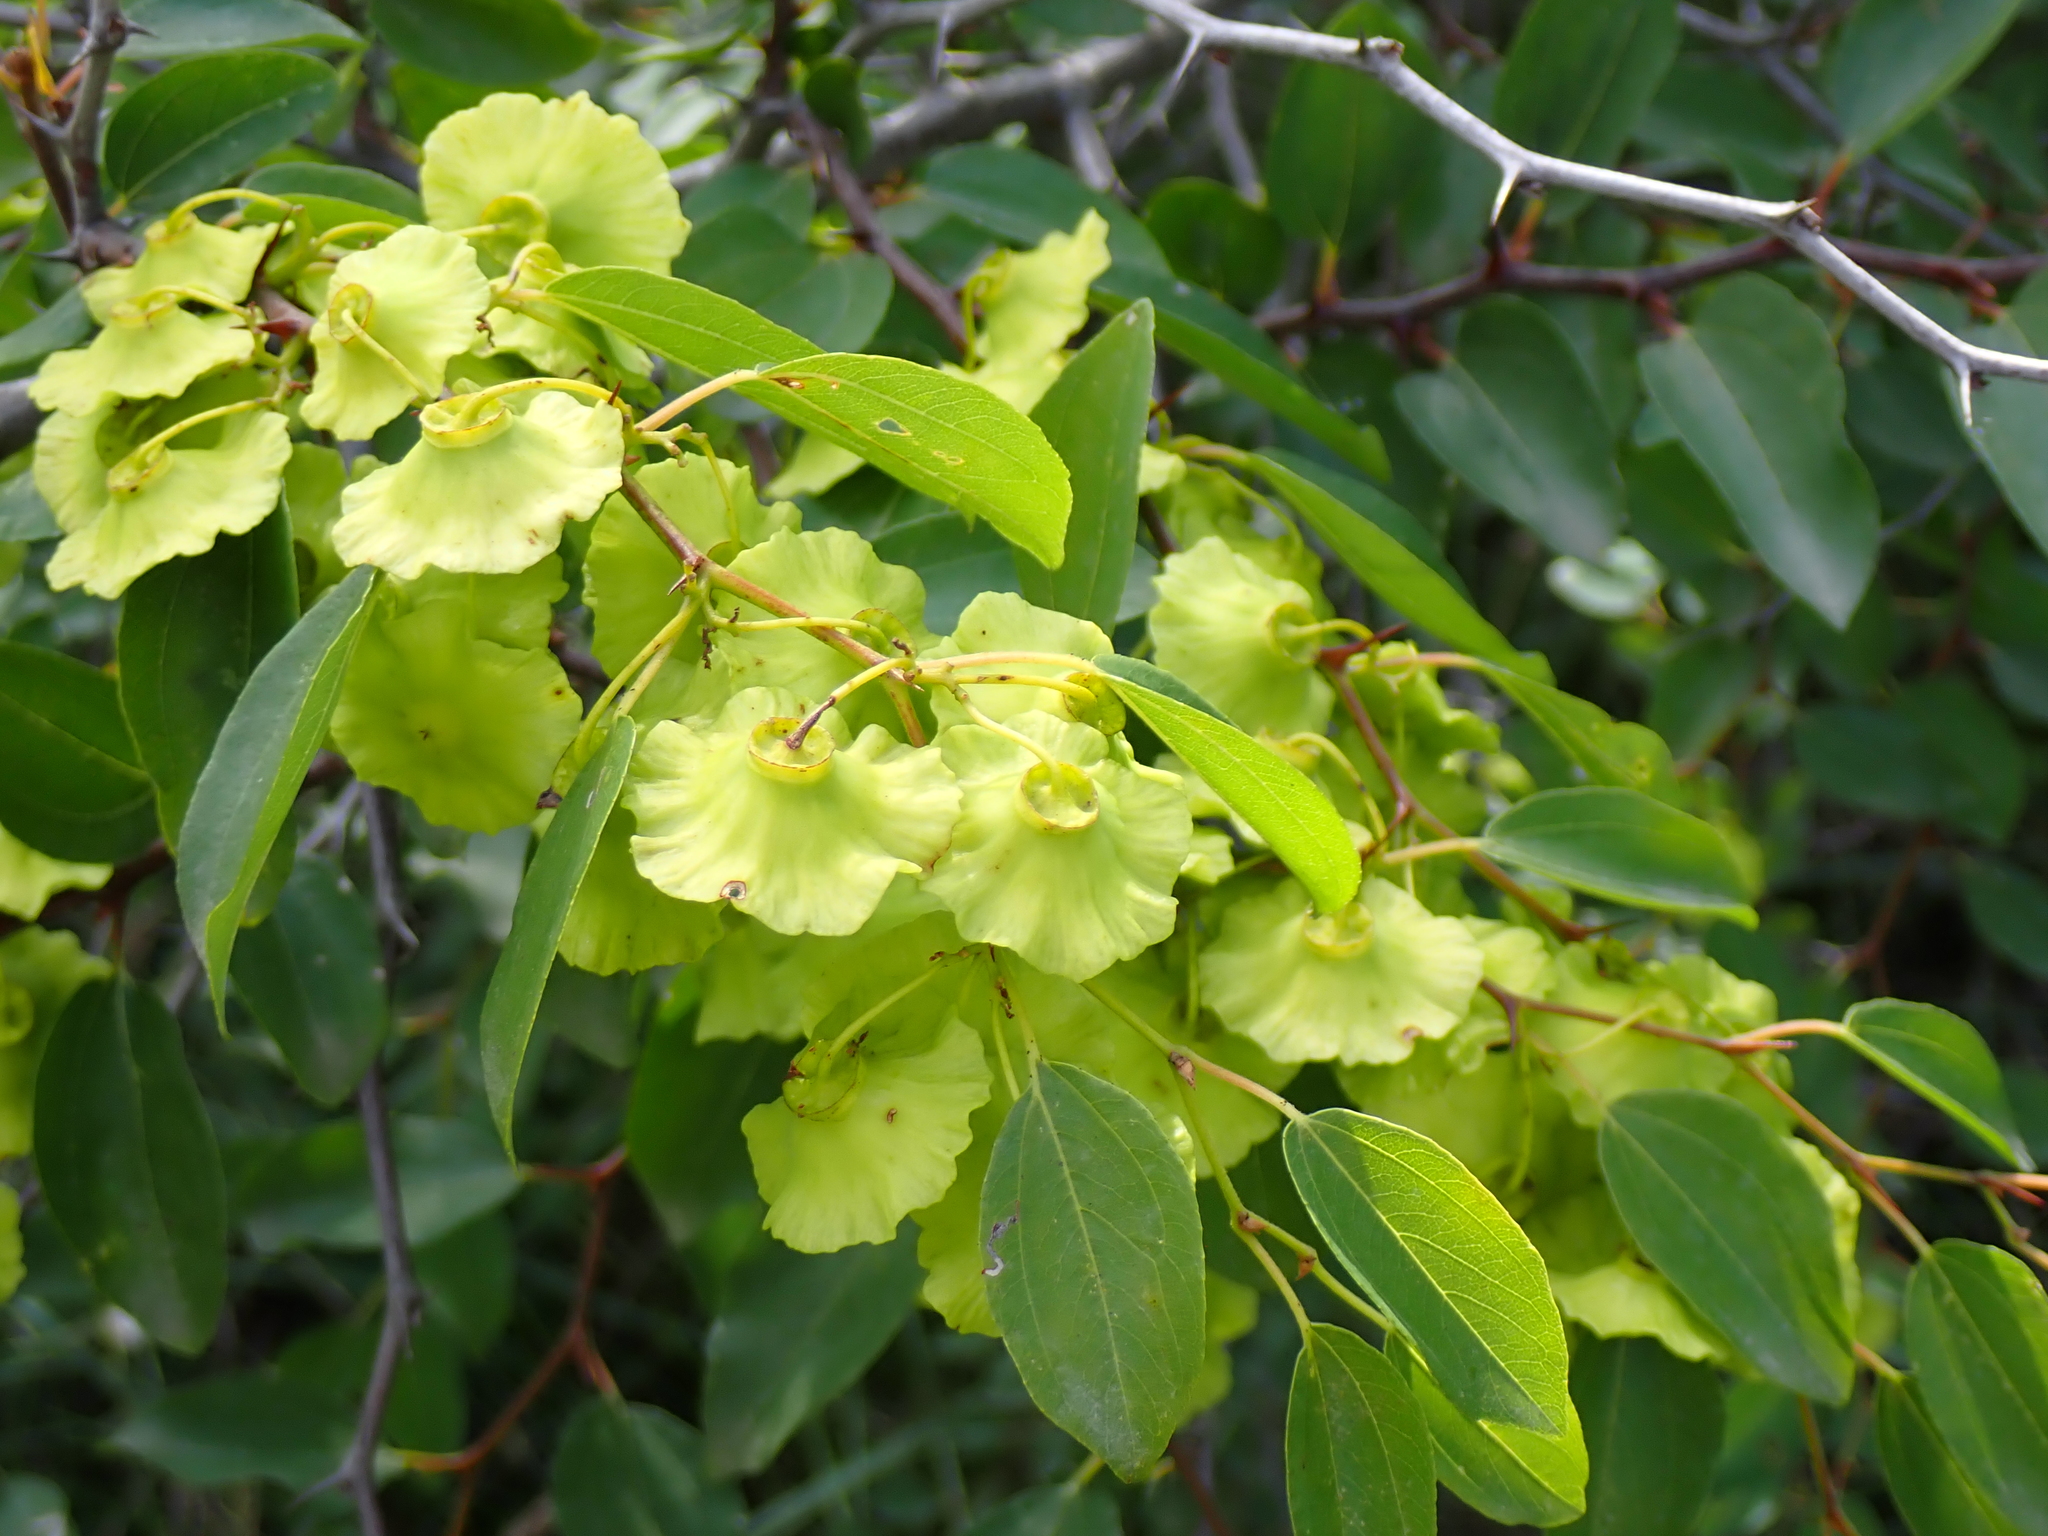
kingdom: Plantae
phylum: Tracheophyta
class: Magnoliopsida
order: Rosales
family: Rhamnaceae
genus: Paliurus
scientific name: Paliurus spina-christi
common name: Jeruselem thorn
